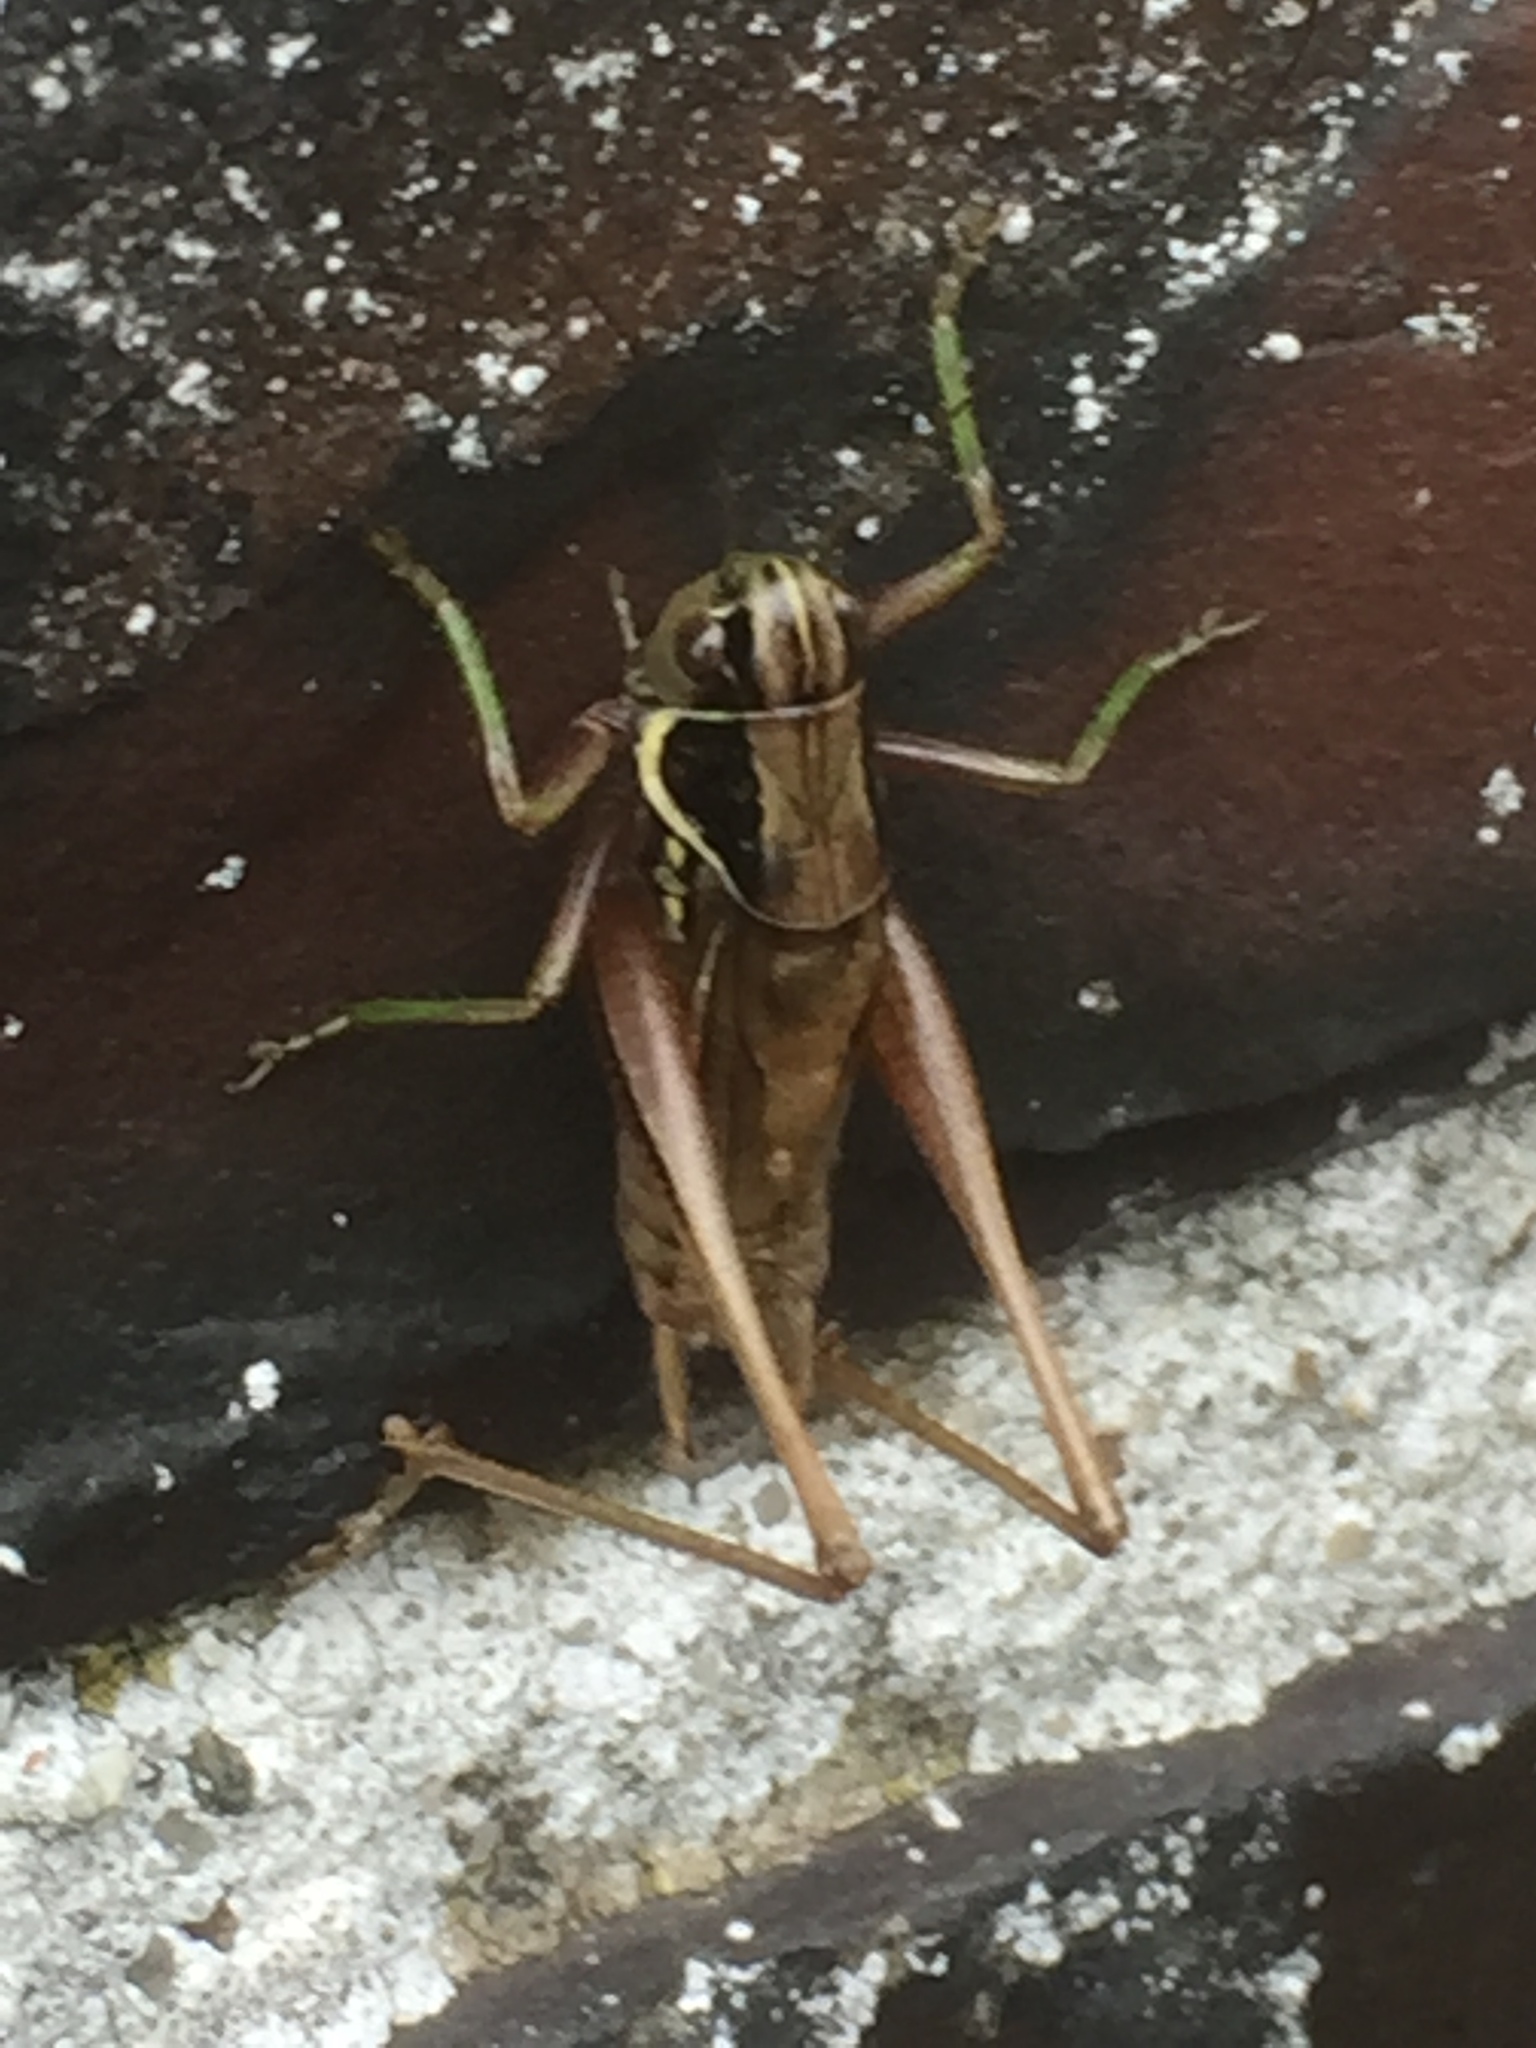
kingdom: Animalia
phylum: Arthropoda
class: Insecta
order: Orthoptera
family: Tettigoniidae
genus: Roeseliana
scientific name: Roeseliana roeselii
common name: Roesel's bush cricket
